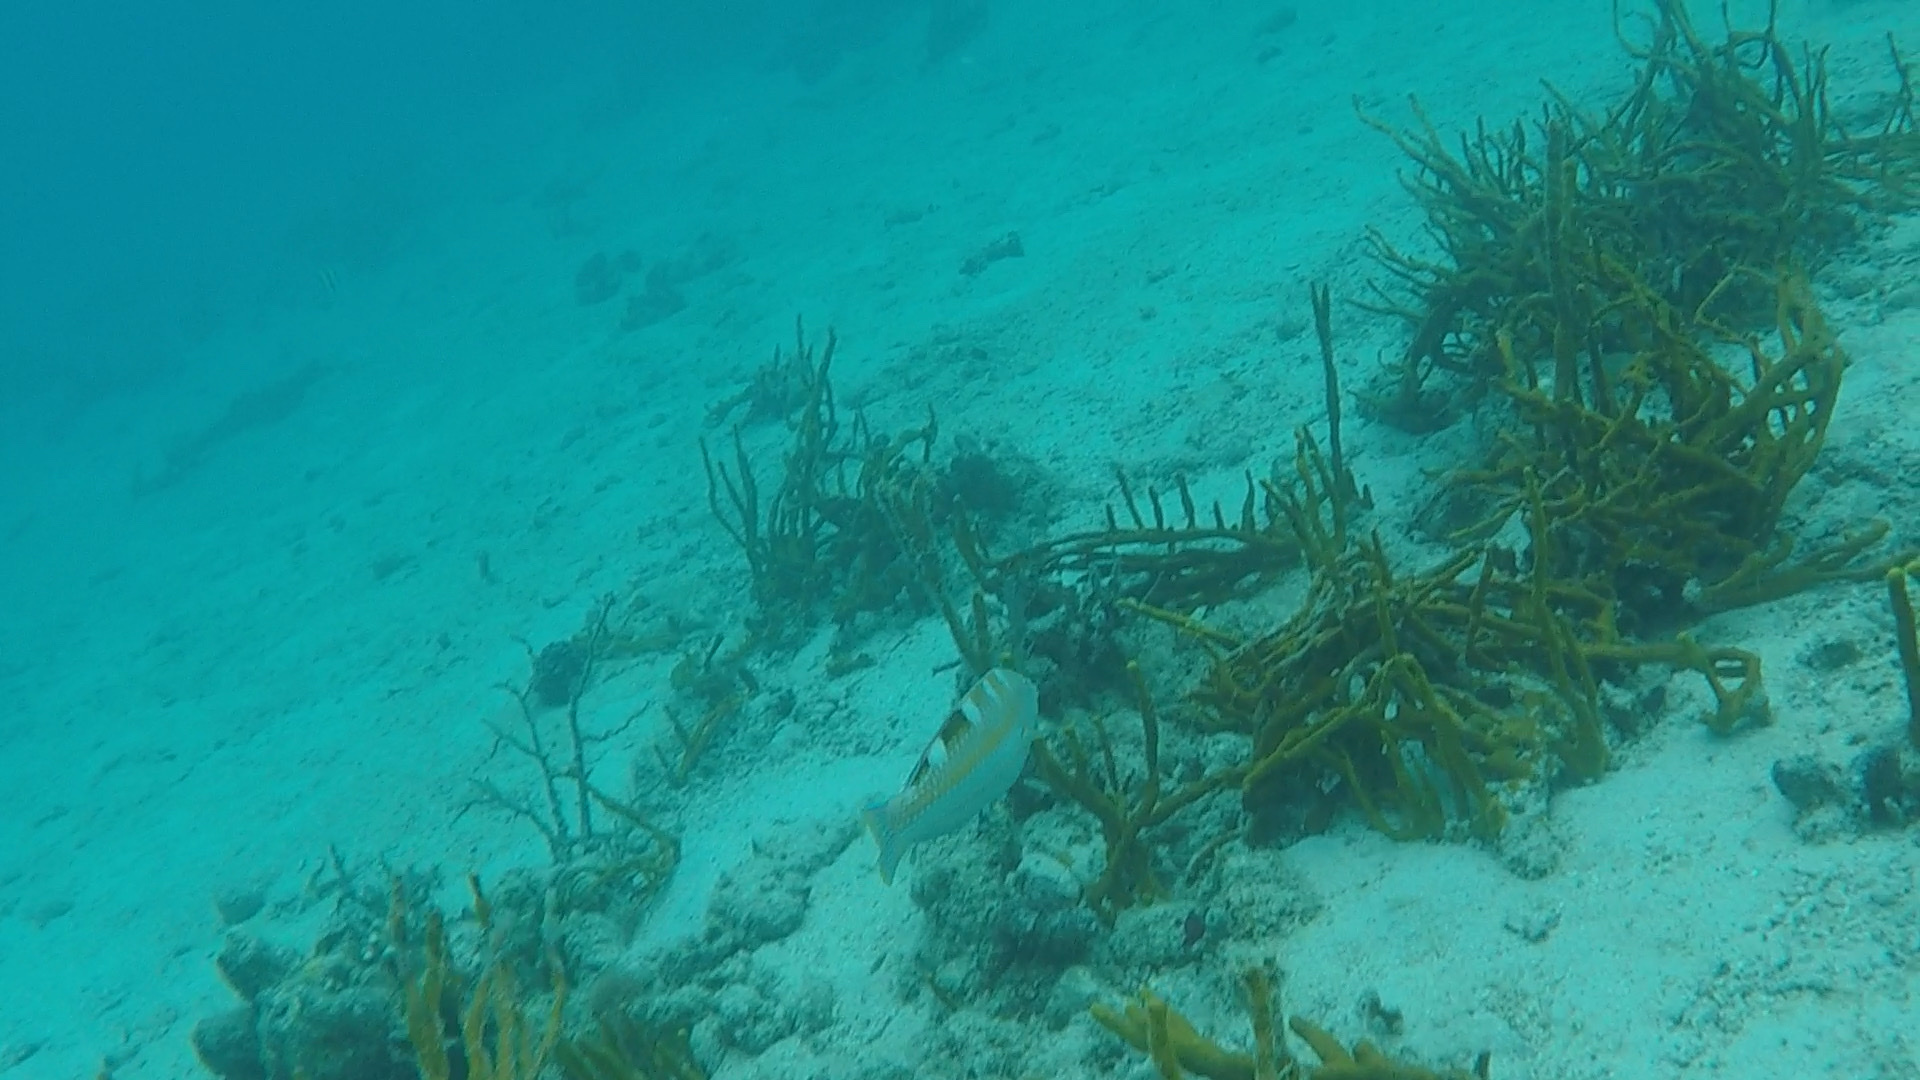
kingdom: Animalia
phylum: Chordata
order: Perciformes
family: Labridae
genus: Halichoeres
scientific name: Halichoeres radiatus
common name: Puddingwife
